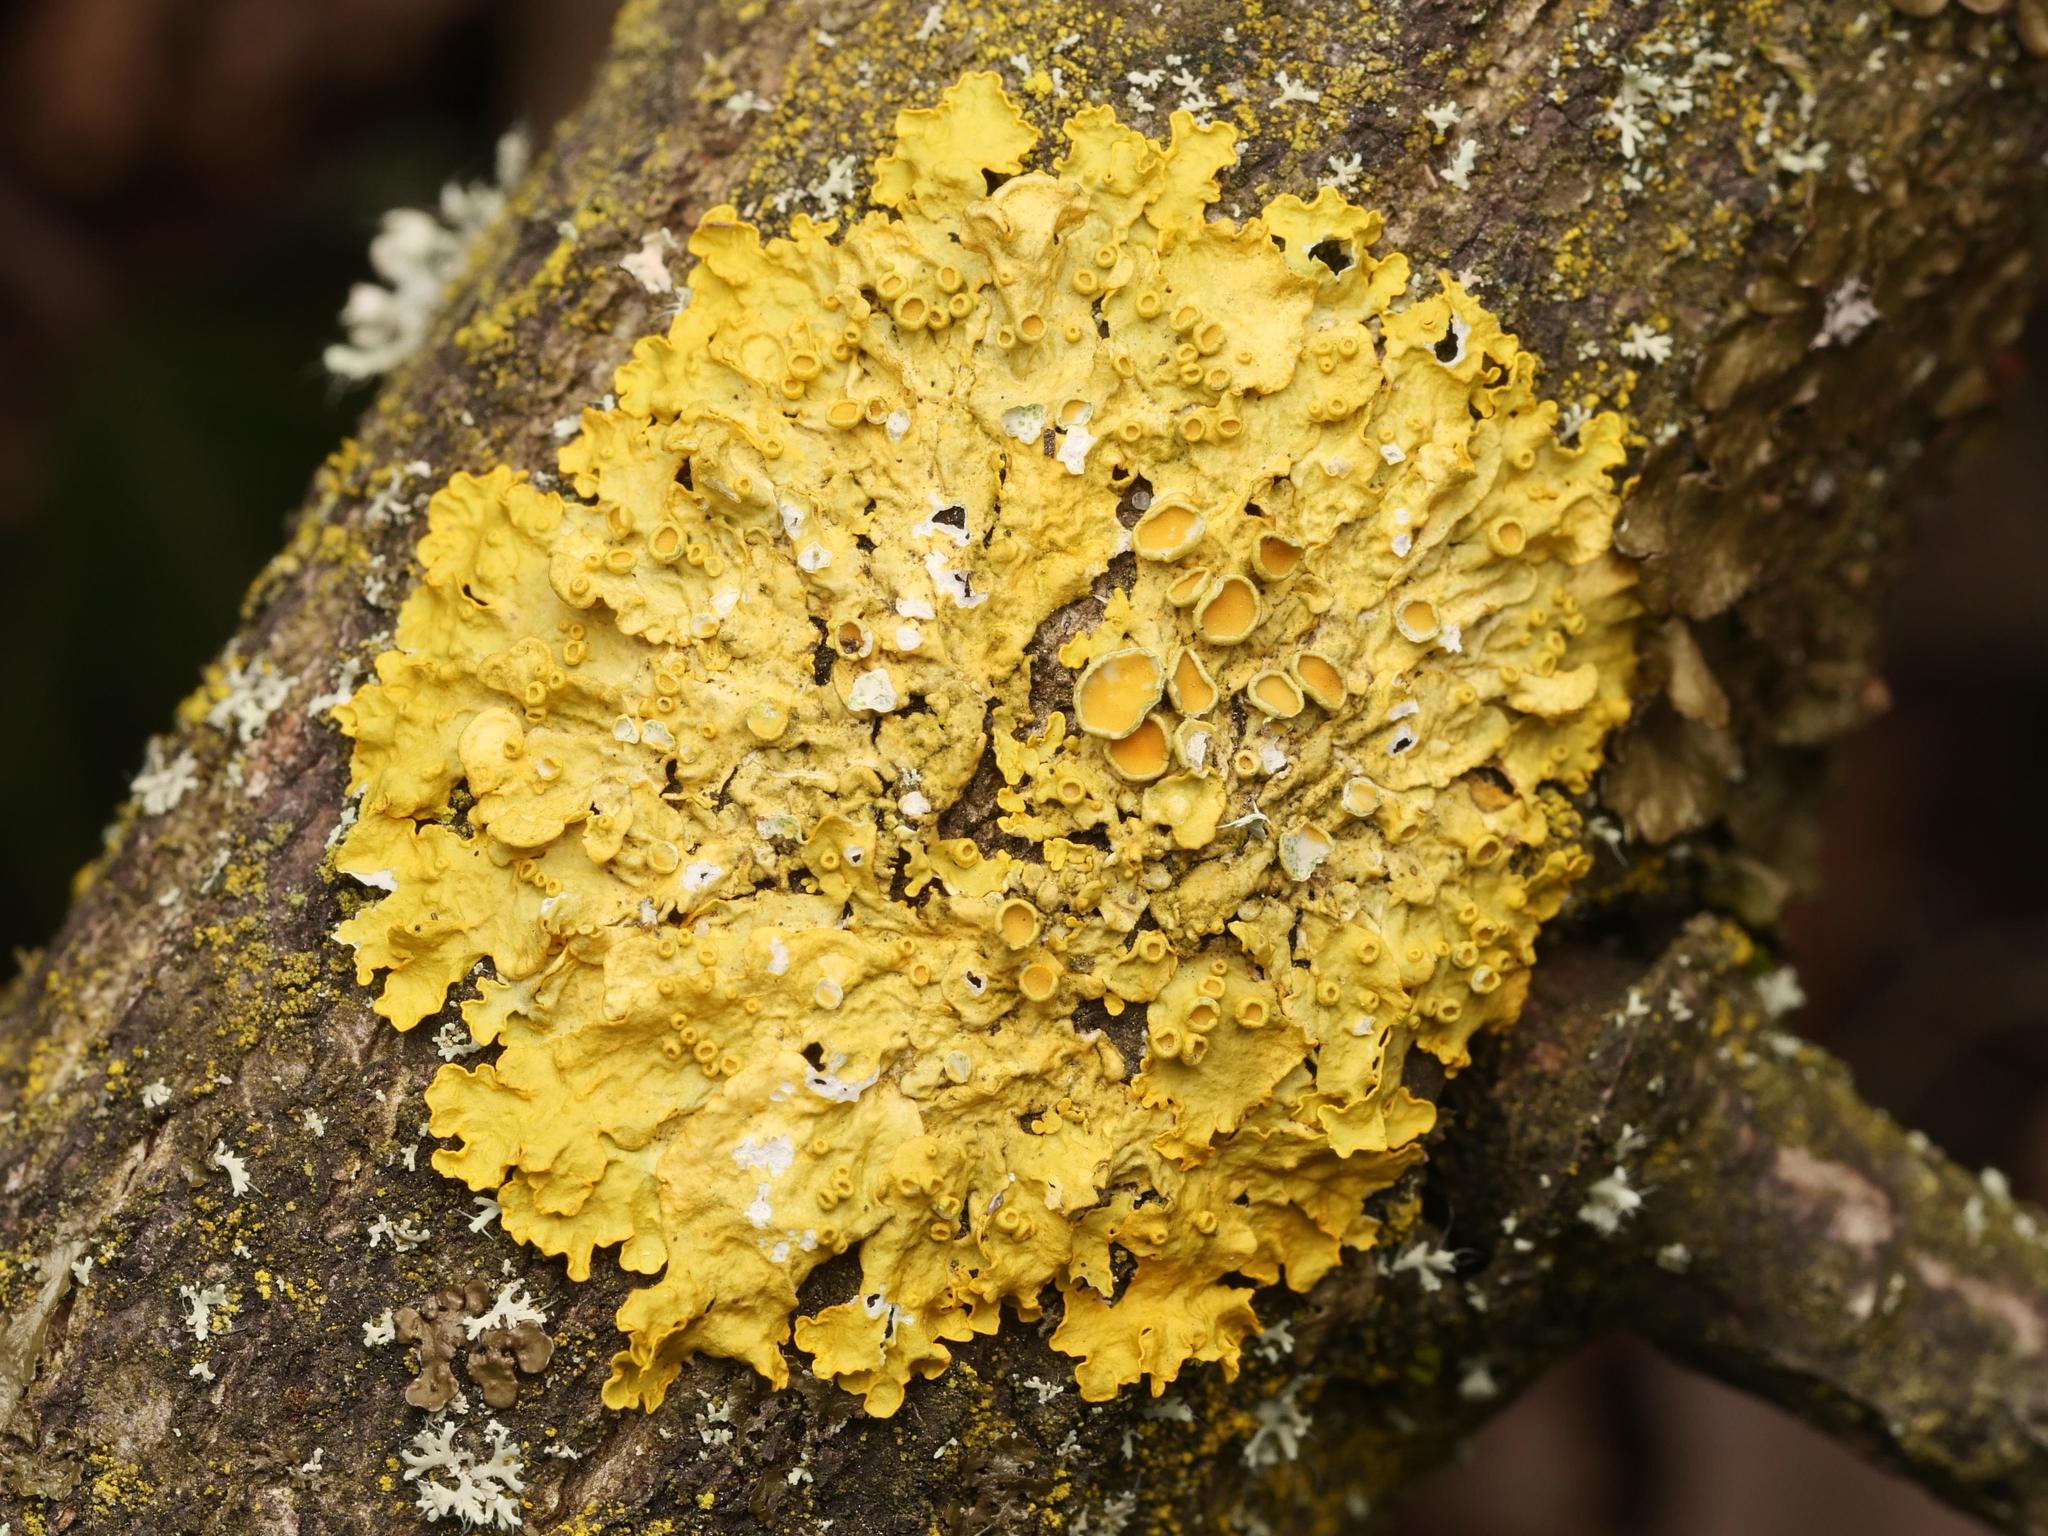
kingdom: Fungi
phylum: Ascomycota
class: Lecanoromycetes
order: Teloschistales
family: Teloschistaceae
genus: Xanthoria
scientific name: Xanthoria parietina
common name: Common orange lichen
